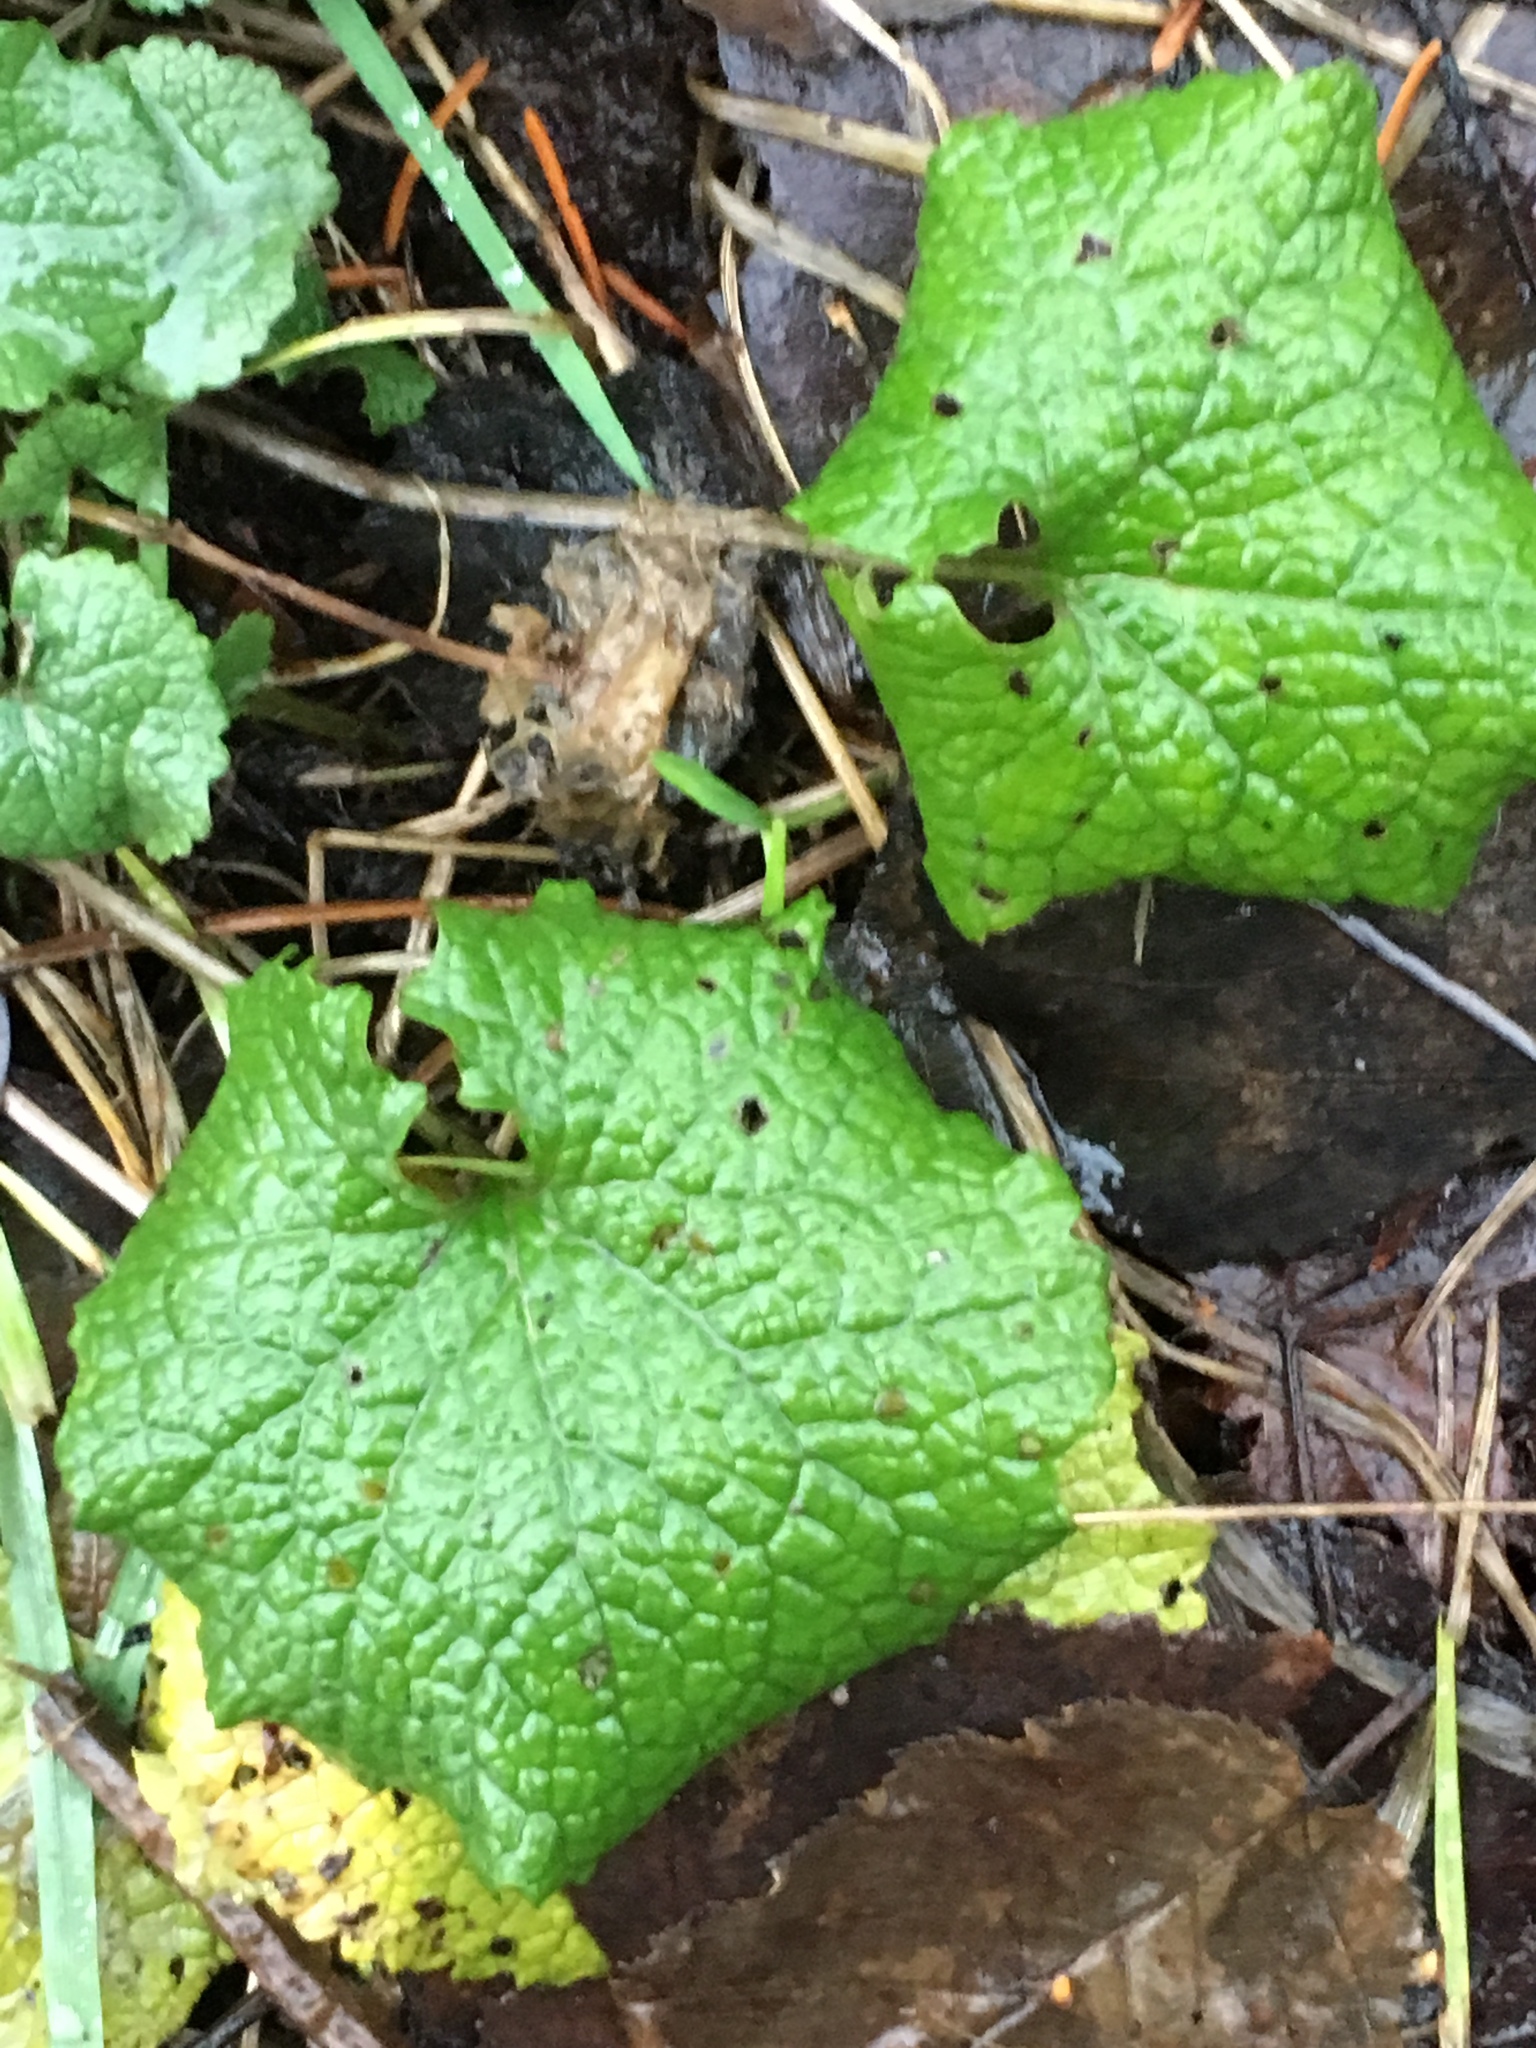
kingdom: Plantae
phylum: Tracheophyta
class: Magnoliopsida
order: Brassicales
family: Brassicaceae
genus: Alliaria
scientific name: Alliaria petiolata
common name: Garlic mustard
